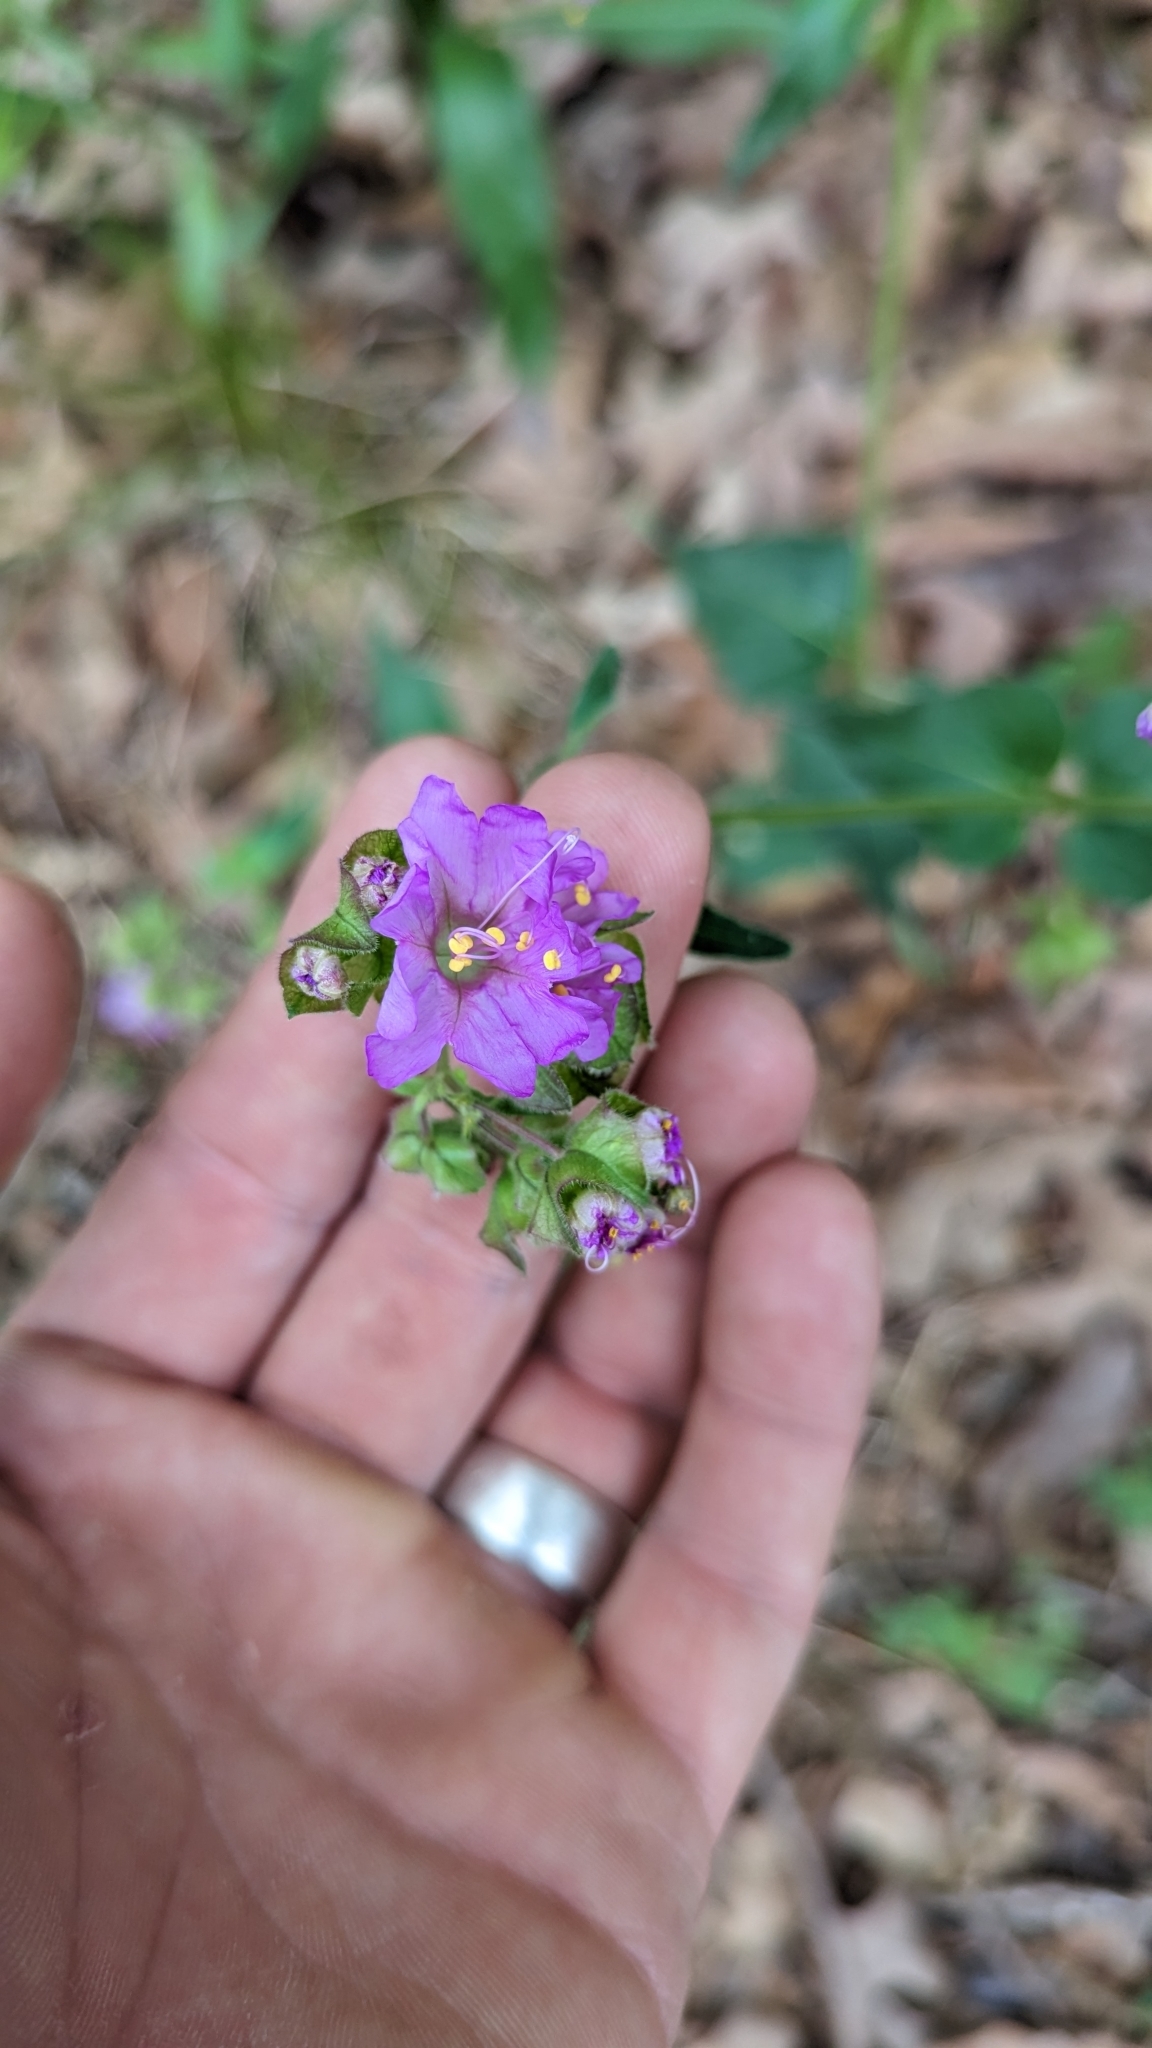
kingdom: Plantae
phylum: Tracheophyta
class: Magnoliopsida
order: Caryophyllales
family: Nyctaginaceae
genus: Mirabilis
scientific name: Mirabilis nyctaginea
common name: Umbrella wort
